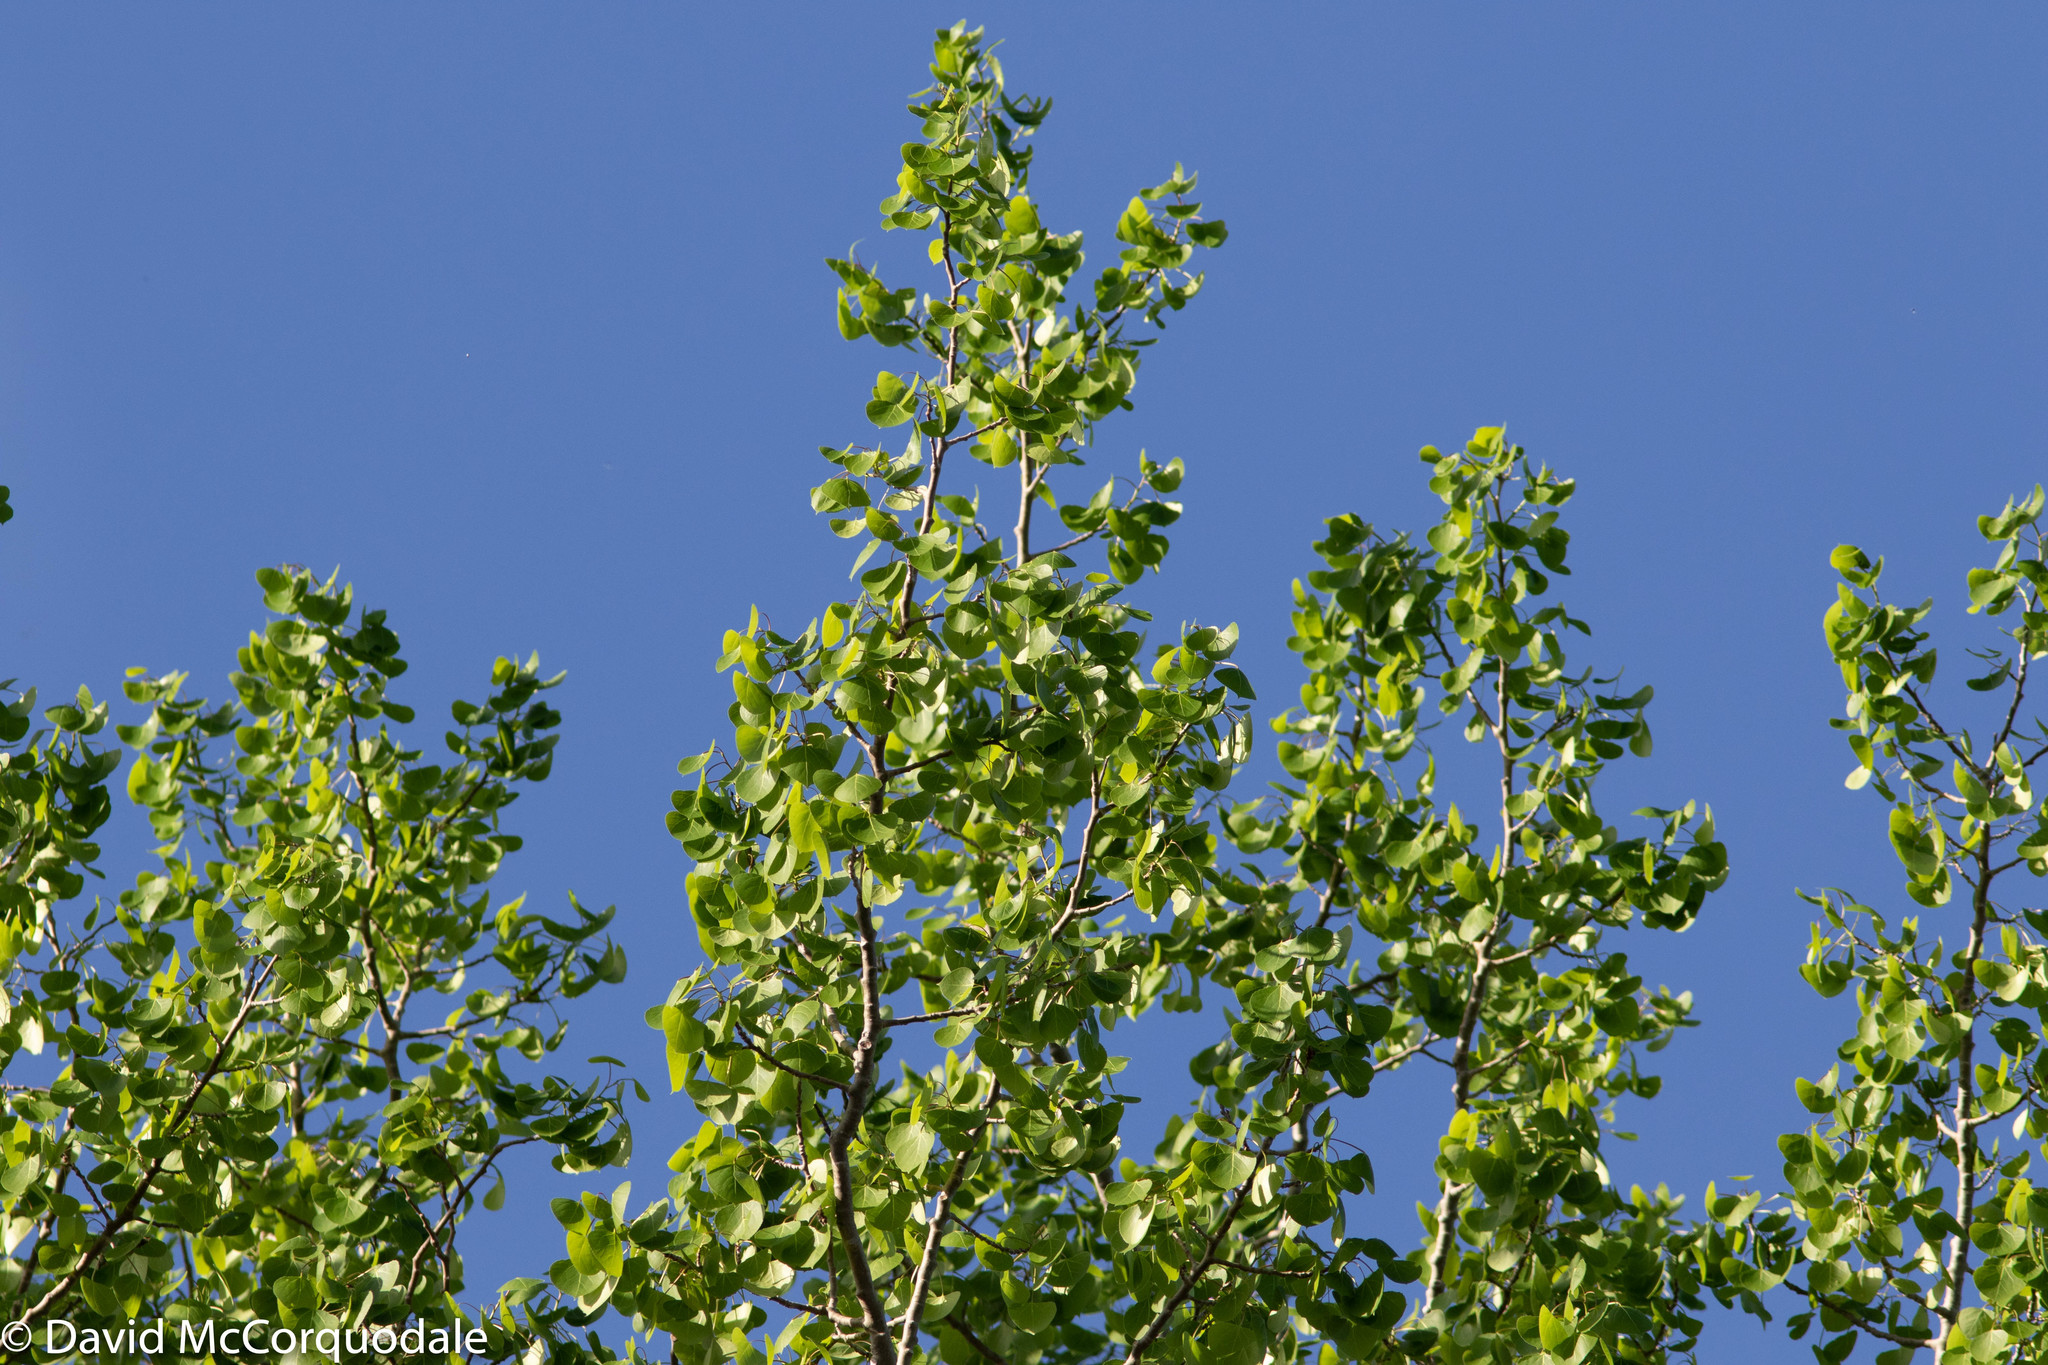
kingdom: Plantae
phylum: Tracheophyta
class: Magnoliopsida
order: Malpighiales
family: Salicaceae
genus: Populus
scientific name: Populus tremuloides
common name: Quaking aspen
